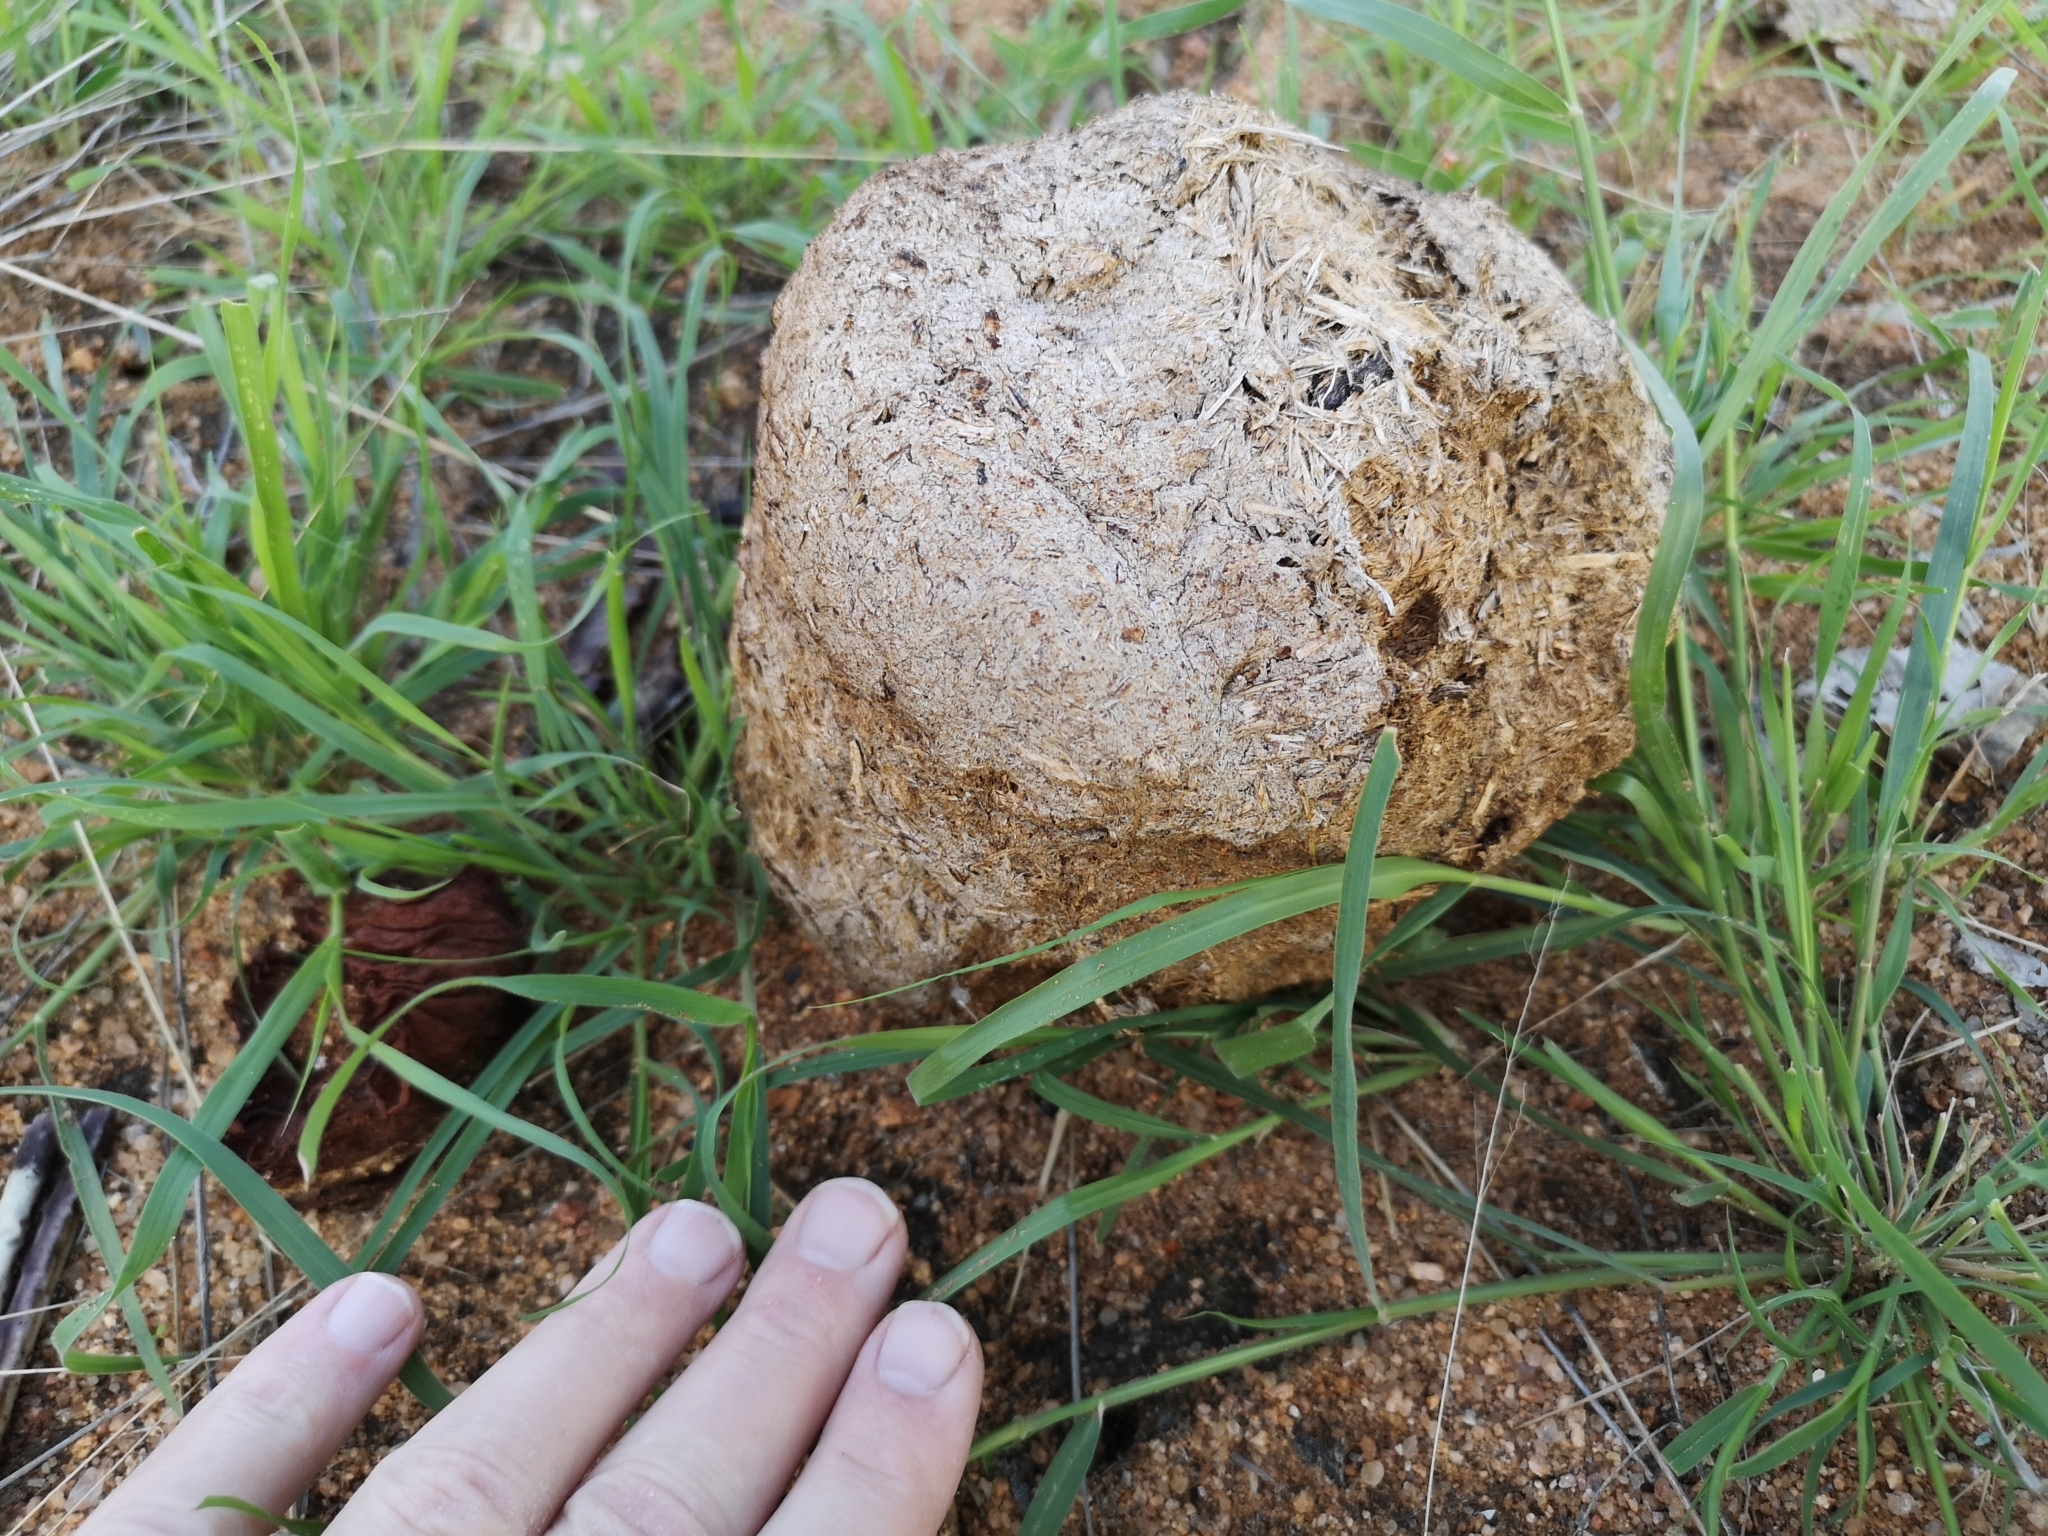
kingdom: Animalia
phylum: Chordata
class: Mammalia
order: Proboscidea
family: Elephantidae
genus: Loxodonta
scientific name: Loxodonta africana
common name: African elephant
